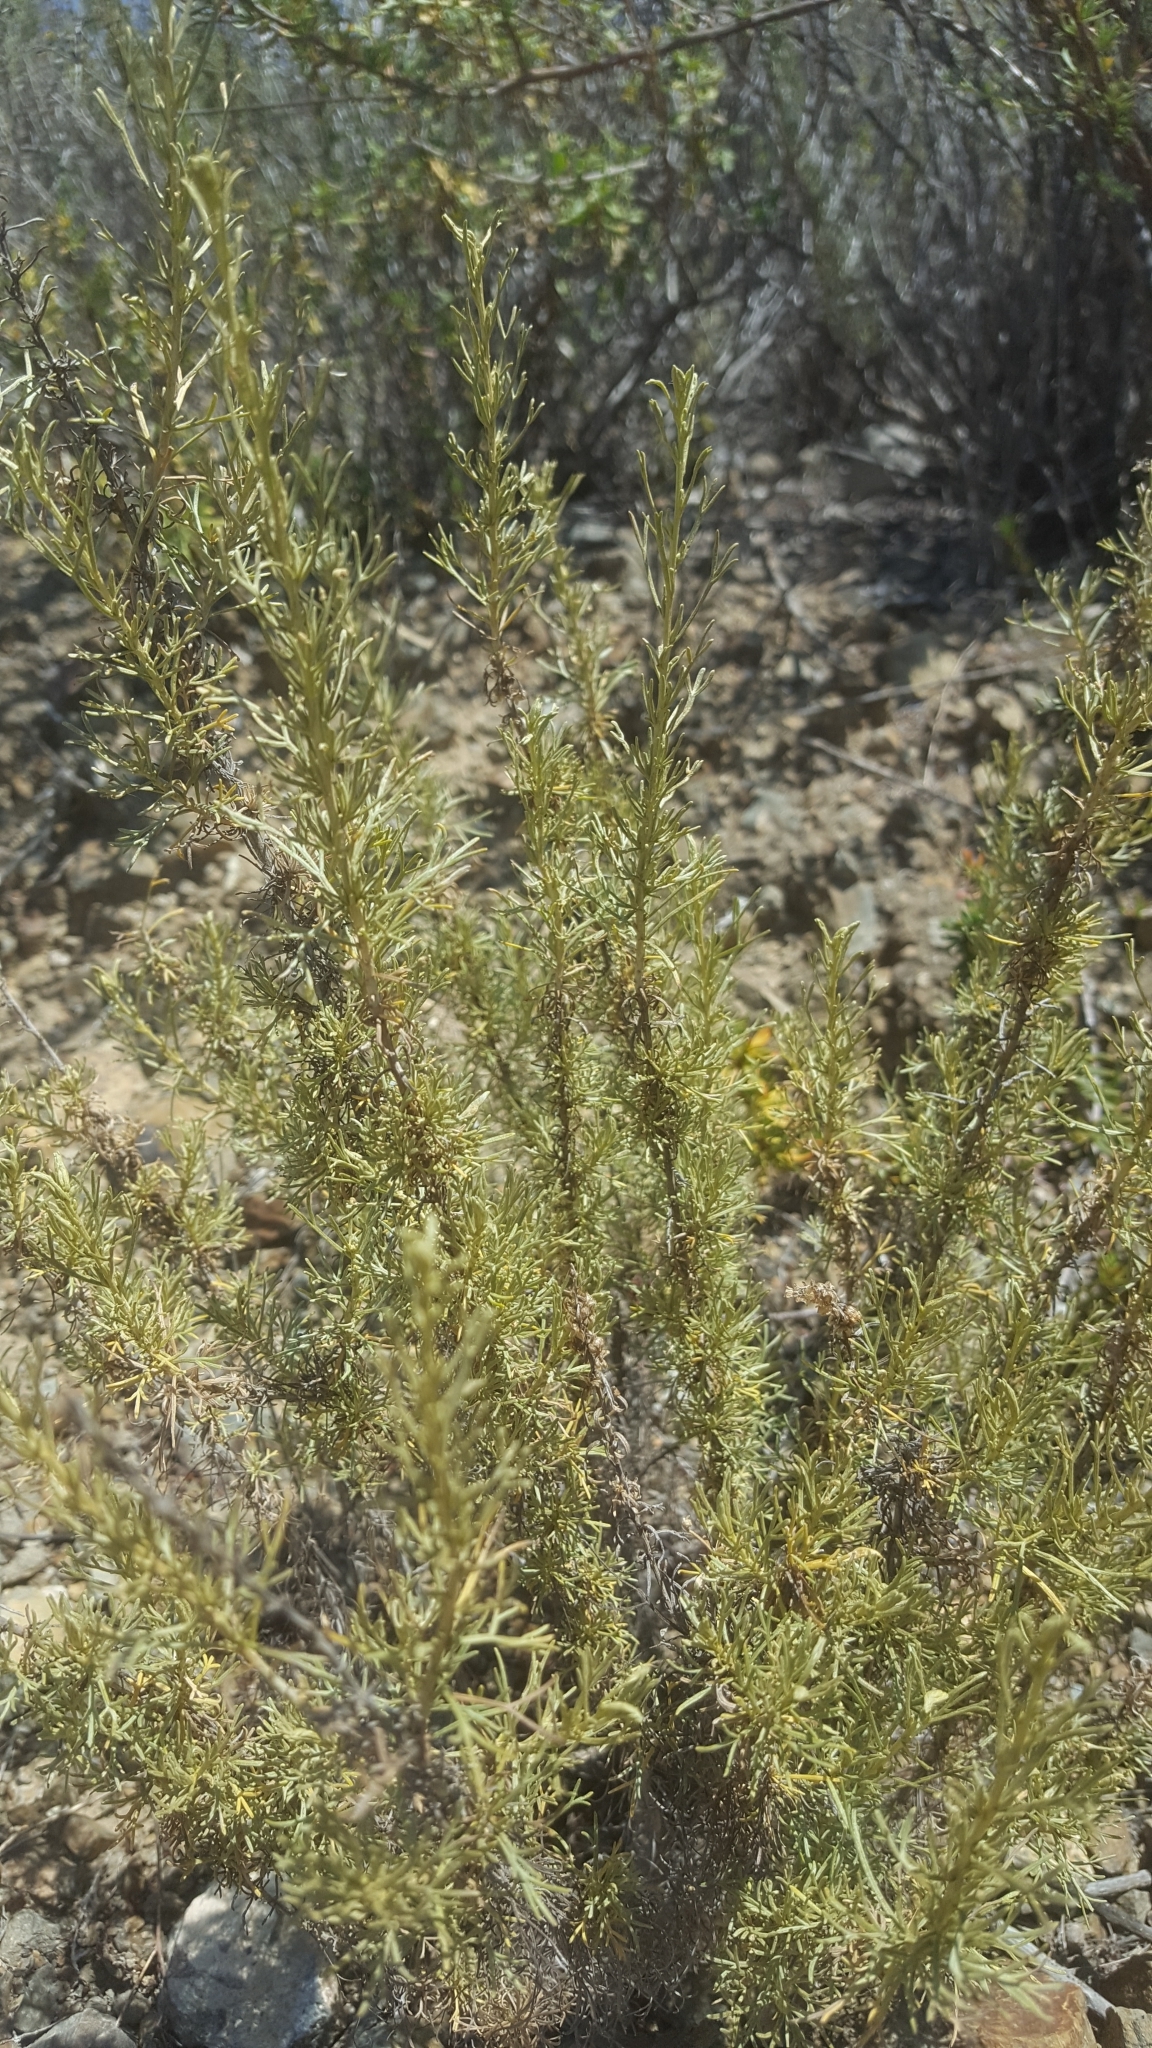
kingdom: Plantae
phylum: Tracheophyta
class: Magnoliopsida
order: Asterales
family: Asteraceae
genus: Artemisia
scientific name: Artemisia californica
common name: California sagebrush
